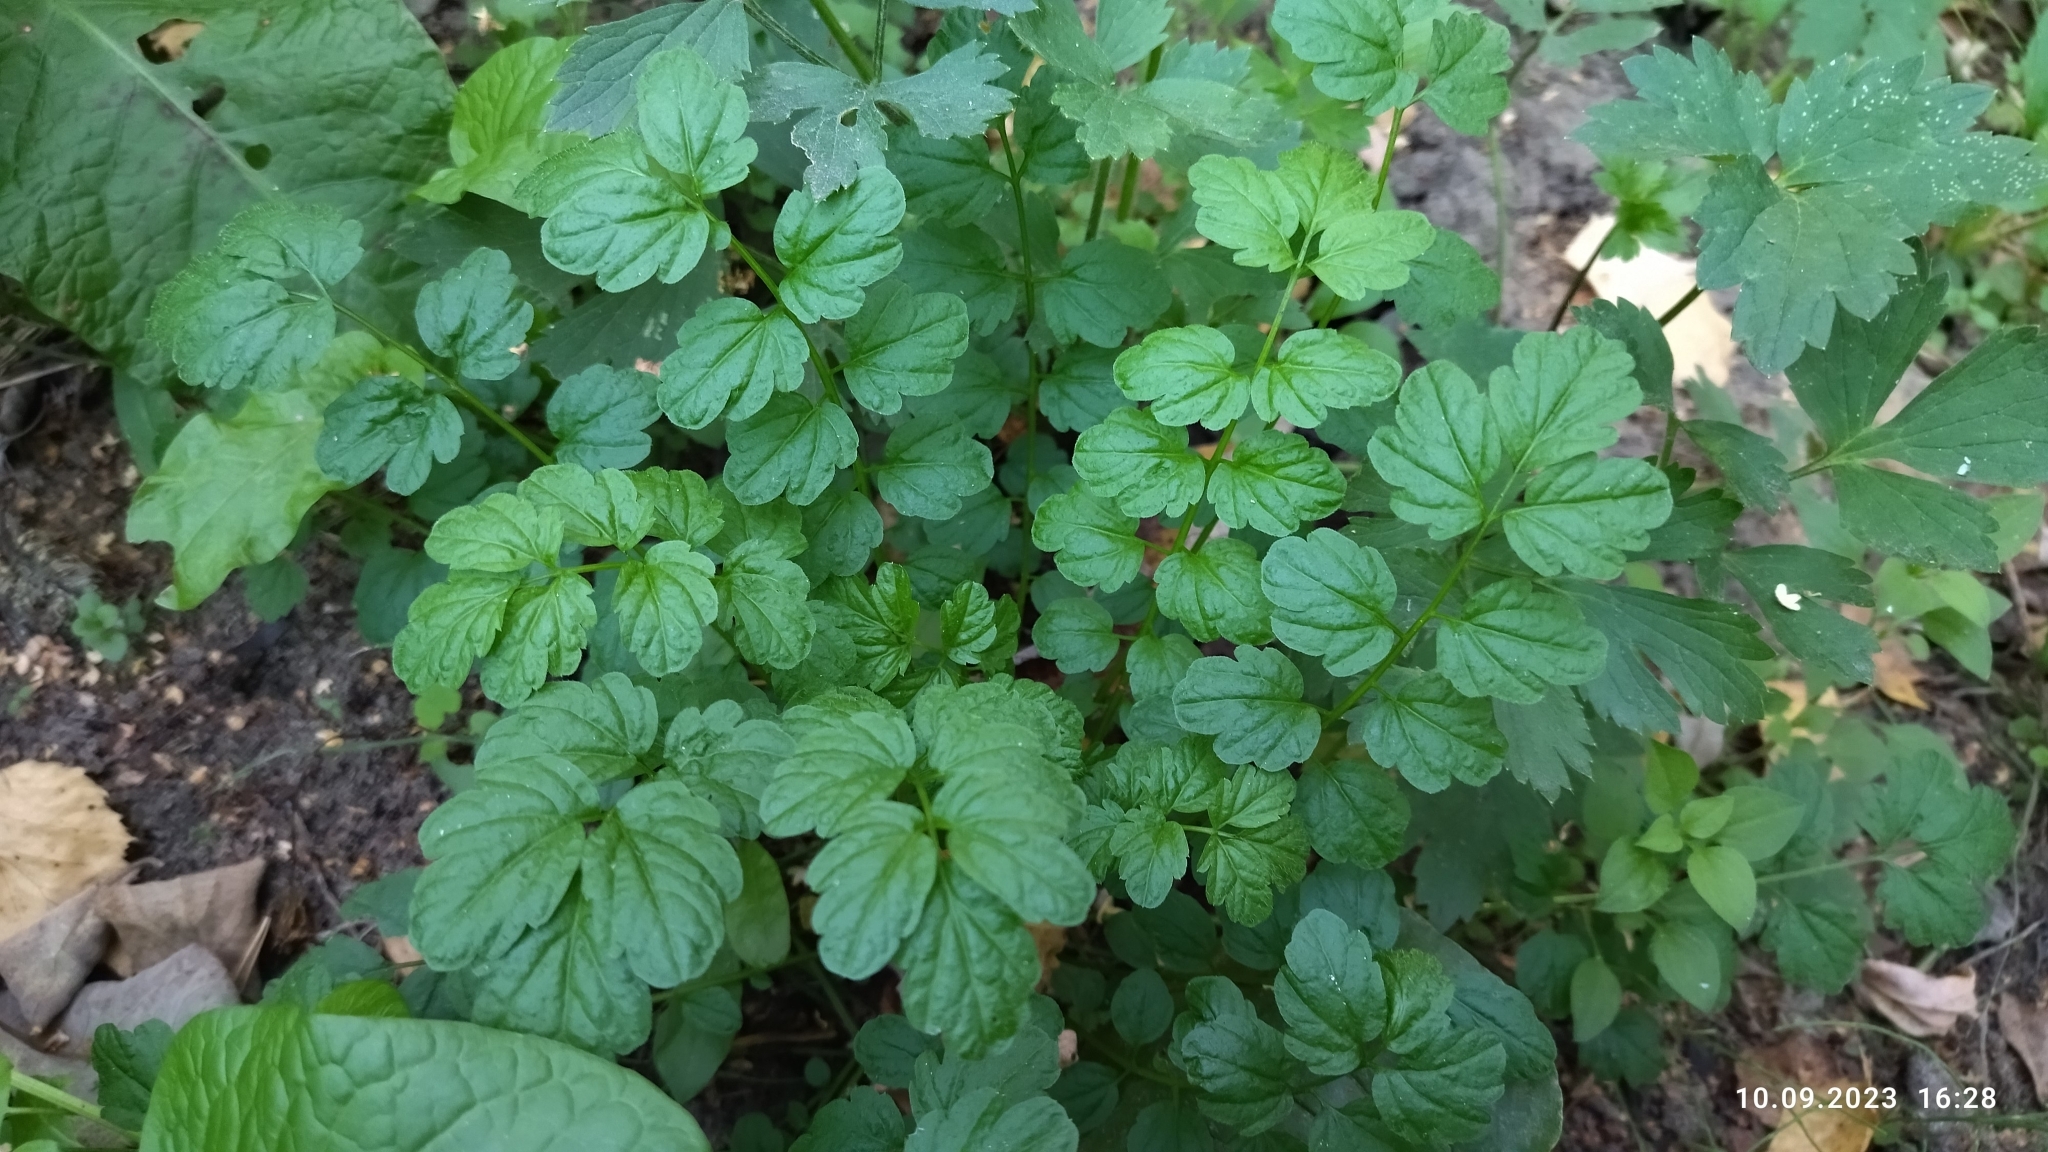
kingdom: Plantae
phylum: Tracheophyta
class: Magnoliopsida
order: Brassicales
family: Brassicaceae
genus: Cardamine
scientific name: Cardamine impatiens
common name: Narrow-leaved bitter-cress
